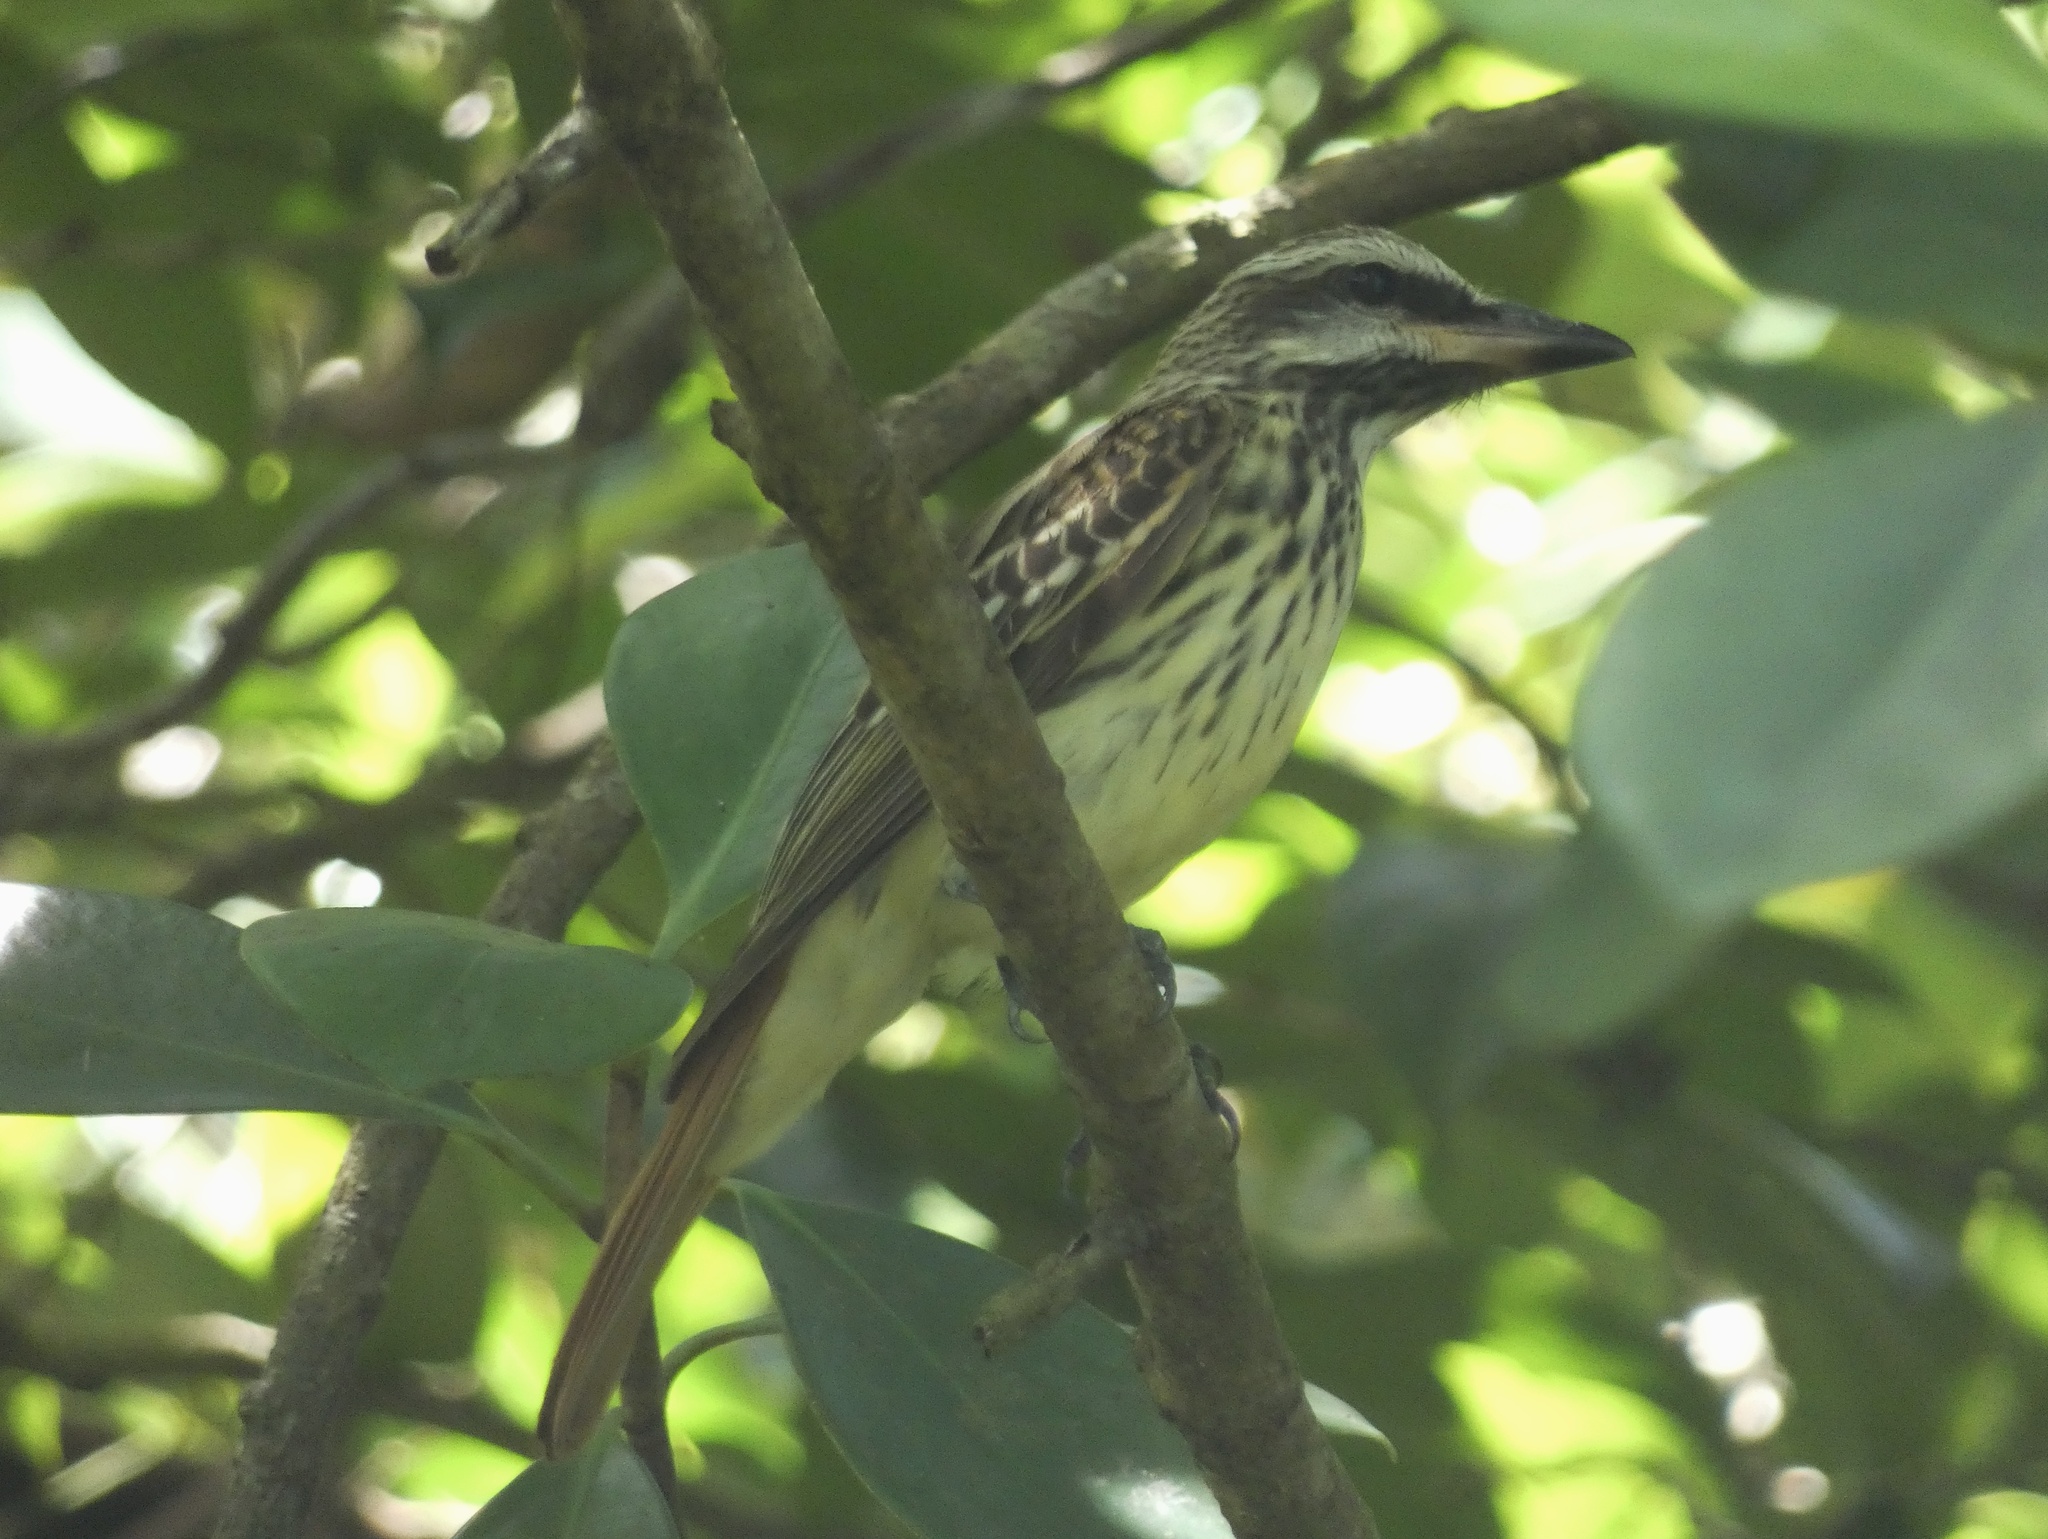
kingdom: Animalia
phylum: Chordata
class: Aves
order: Passeriformes
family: Tyrannidae
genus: Myiodynastes
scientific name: Myiodynastes luteiventris
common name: Sulphur-bellied flycatcher
